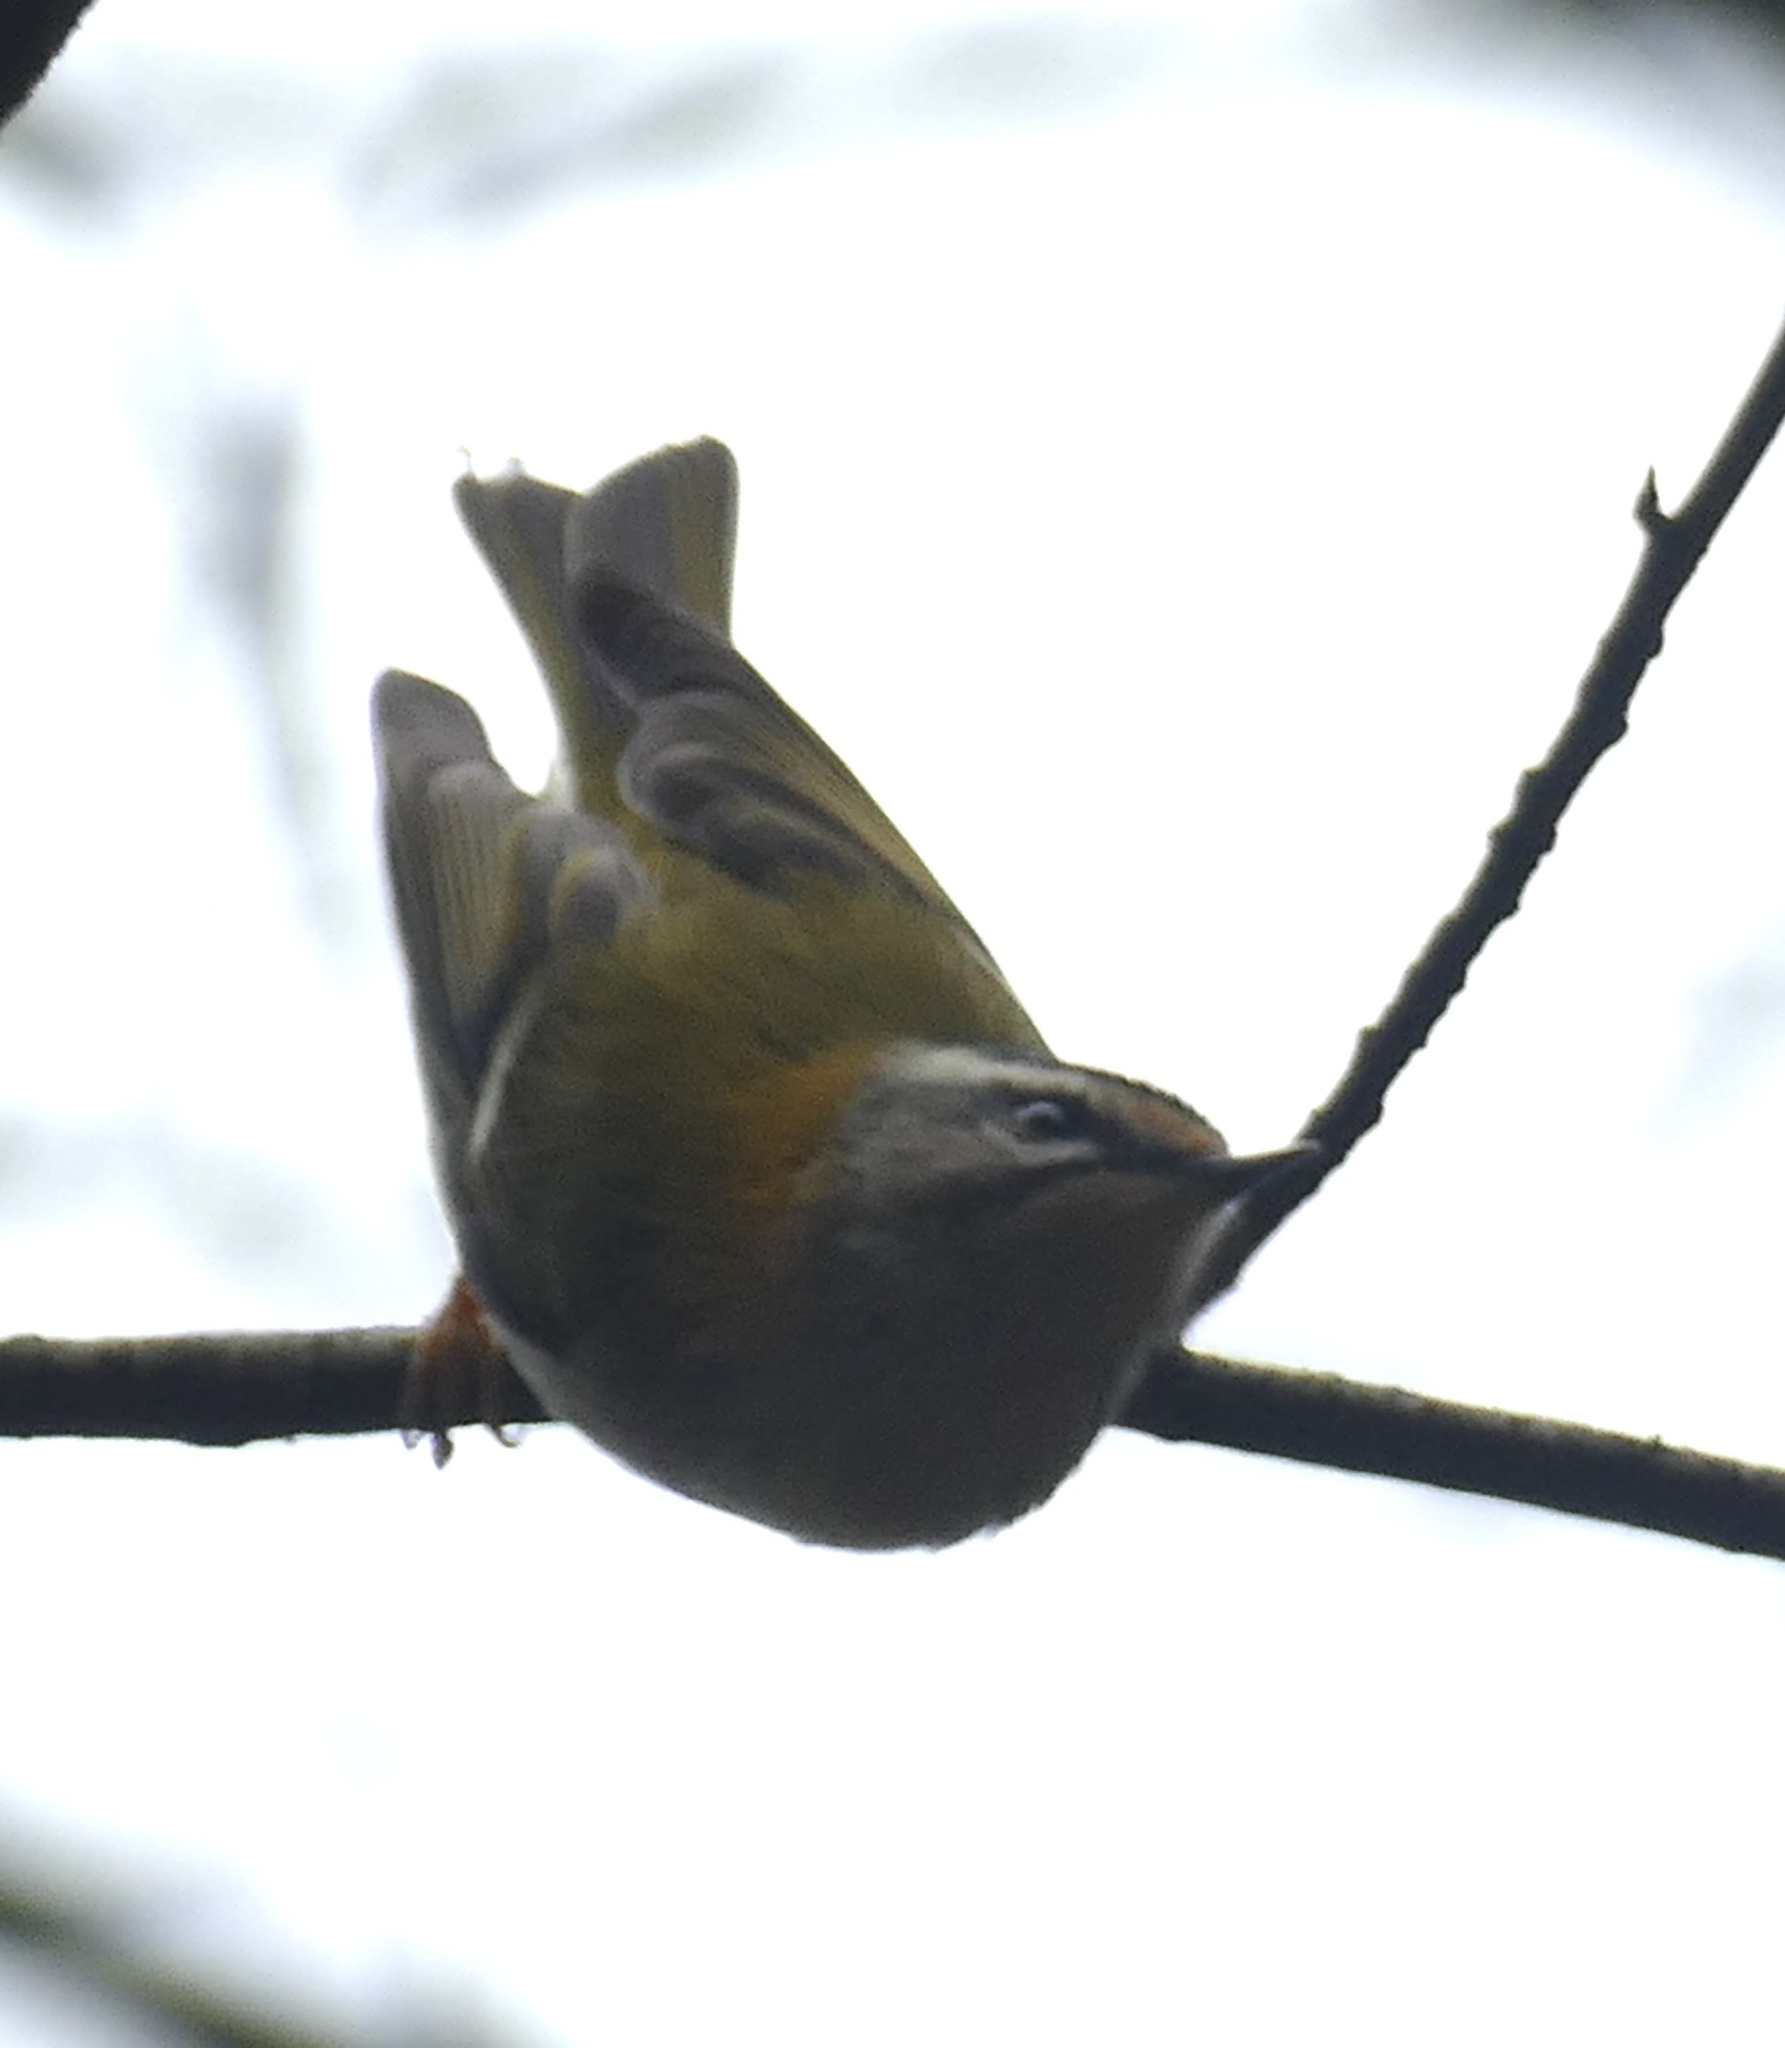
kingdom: Animalia
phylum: Chordata
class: Aves
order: Passeriformes
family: Regulidae
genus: Regulus
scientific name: Regulus ignicapilla
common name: Firecrest
